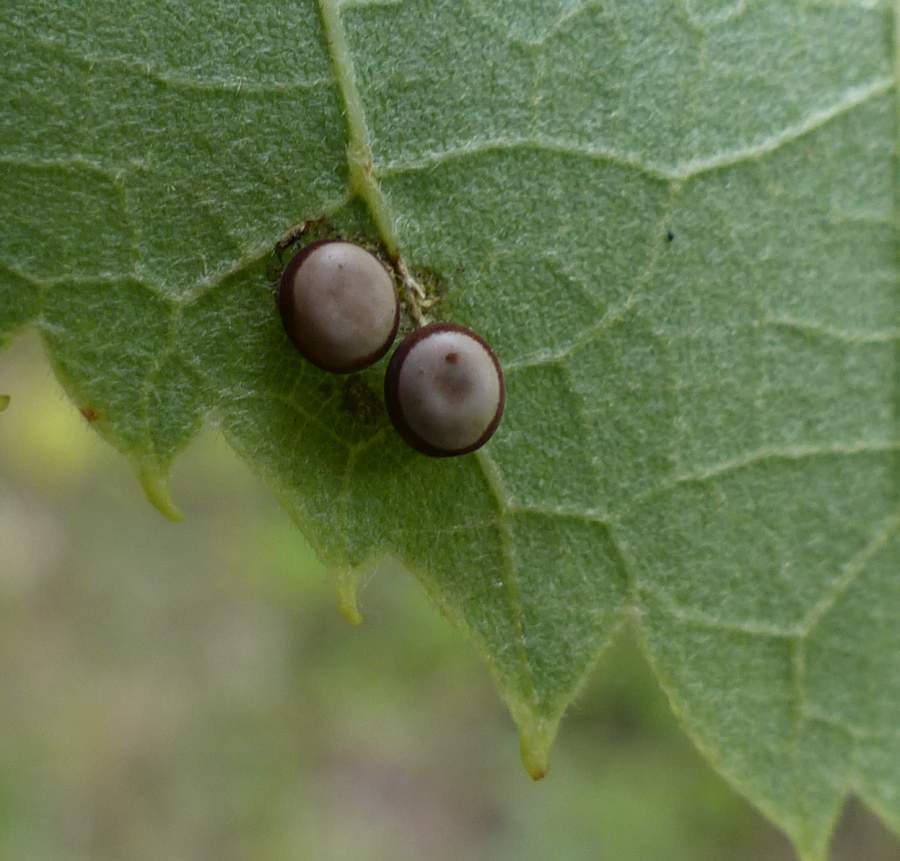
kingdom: Animalia
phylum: Arthropoda
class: Insecta
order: Lepidoptera
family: Saturniidae
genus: Antheraea
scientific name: Antheraea polyphemus
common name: Polyphemus moth
